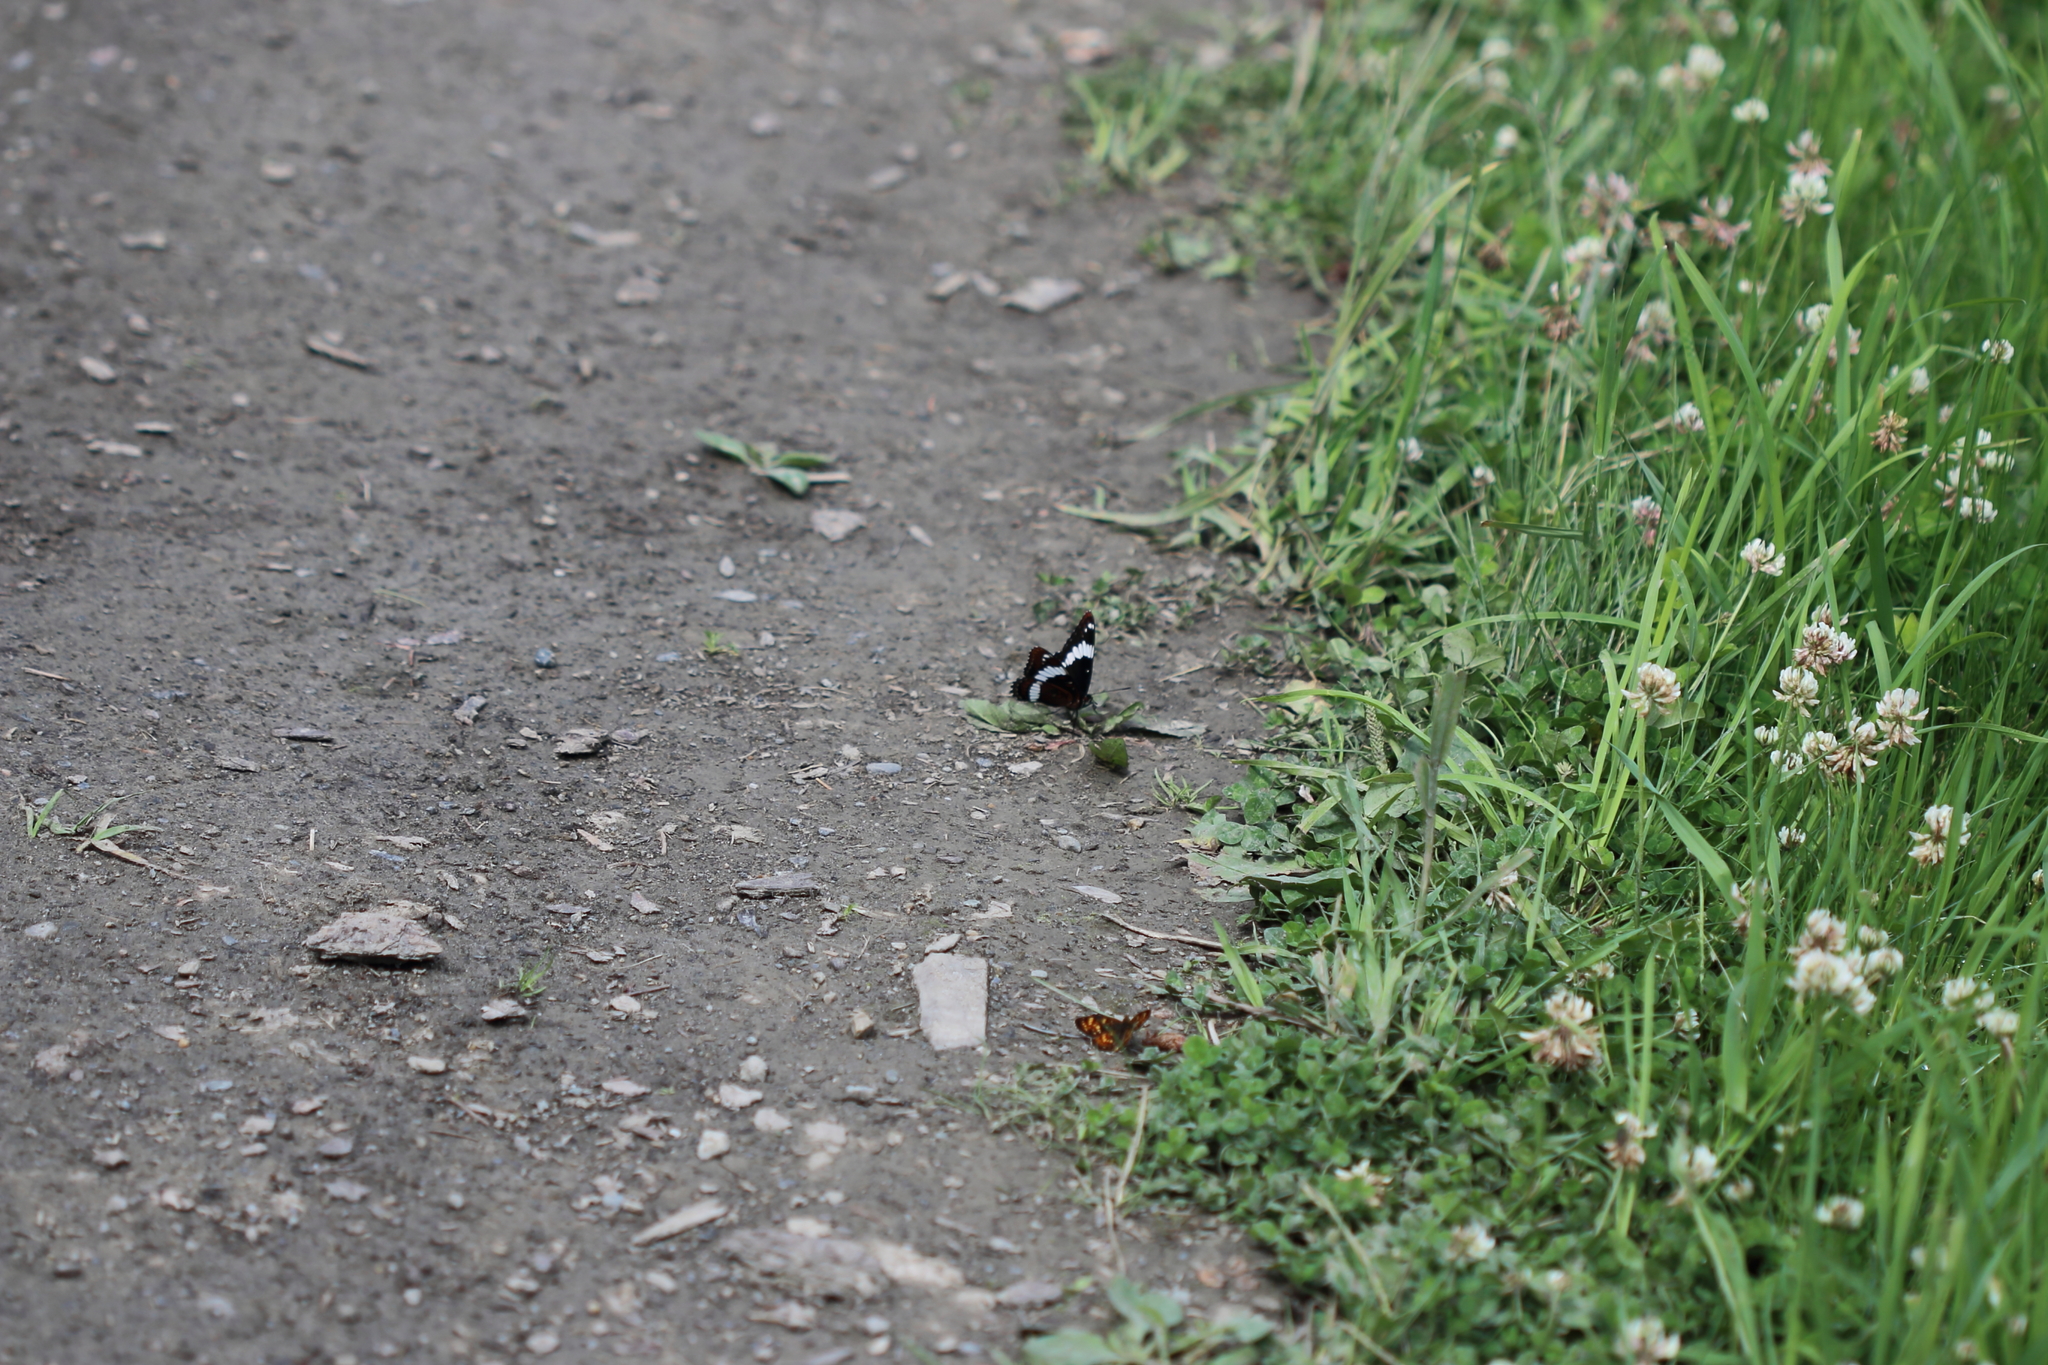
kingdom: Animalia
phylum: Arthropoda
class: Insecta
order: Lepidoptera
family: Nymphalidae
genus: Limenitis
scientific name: Limenitis arthemis
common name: Red-spotted admiral
